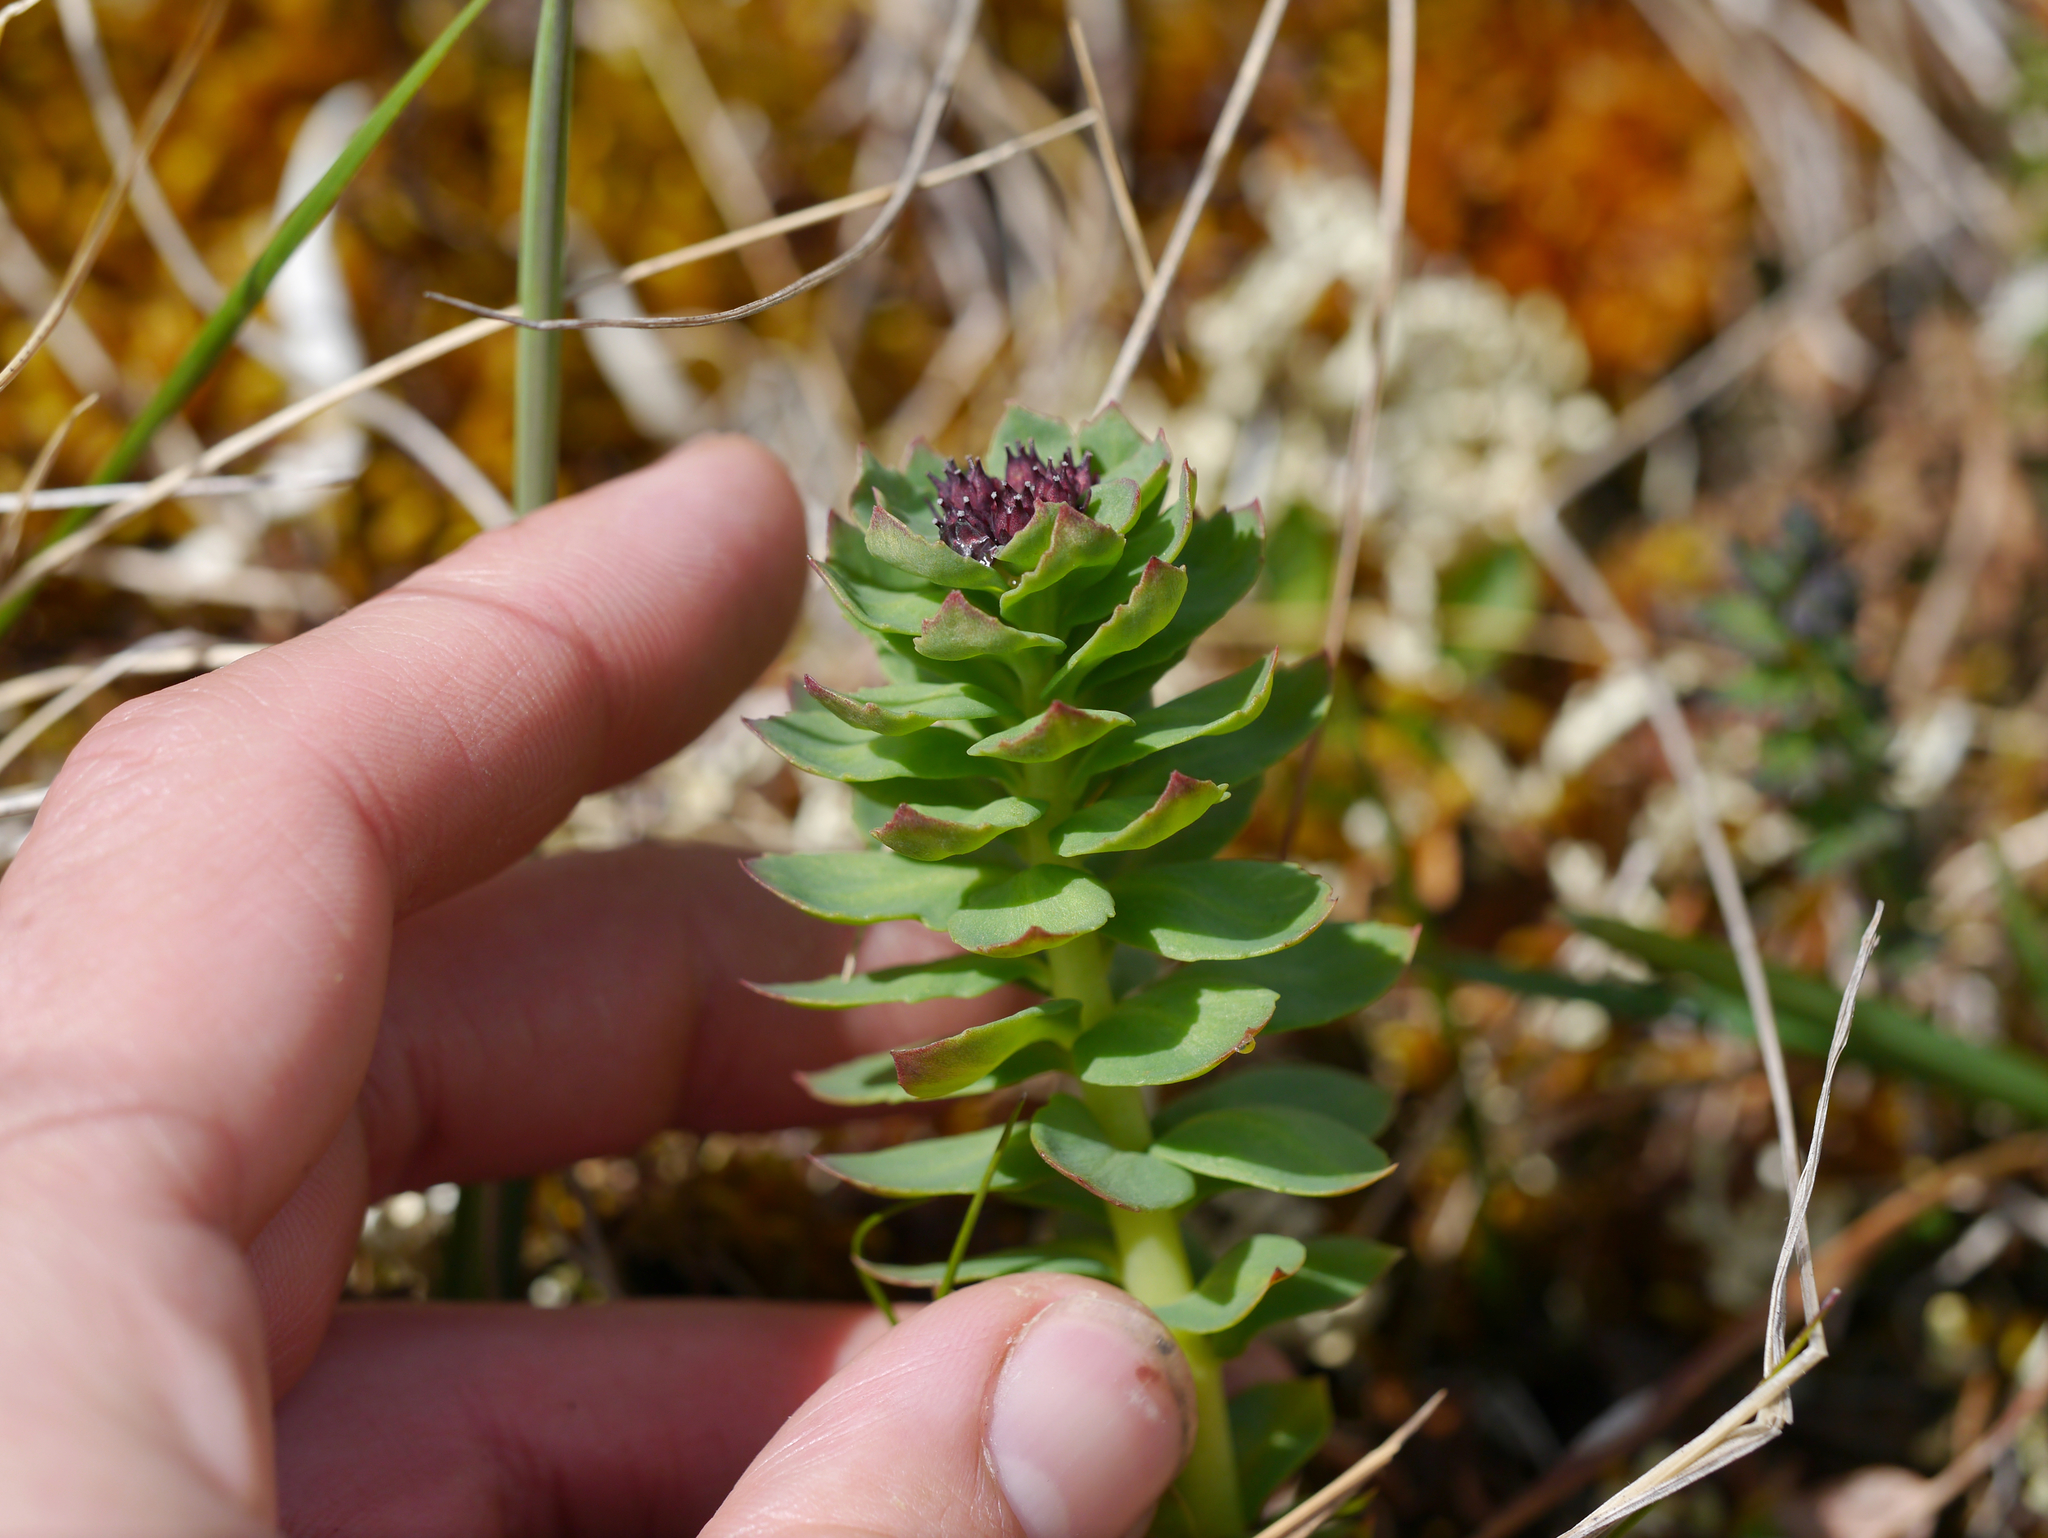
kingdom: Plantae
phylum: Tracheophyta
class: Magnoliopsida
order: Saxifragales
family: Crassulaceae
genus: Rhodiola
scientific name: Rhodiola integrifolia
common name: Western roseroot
